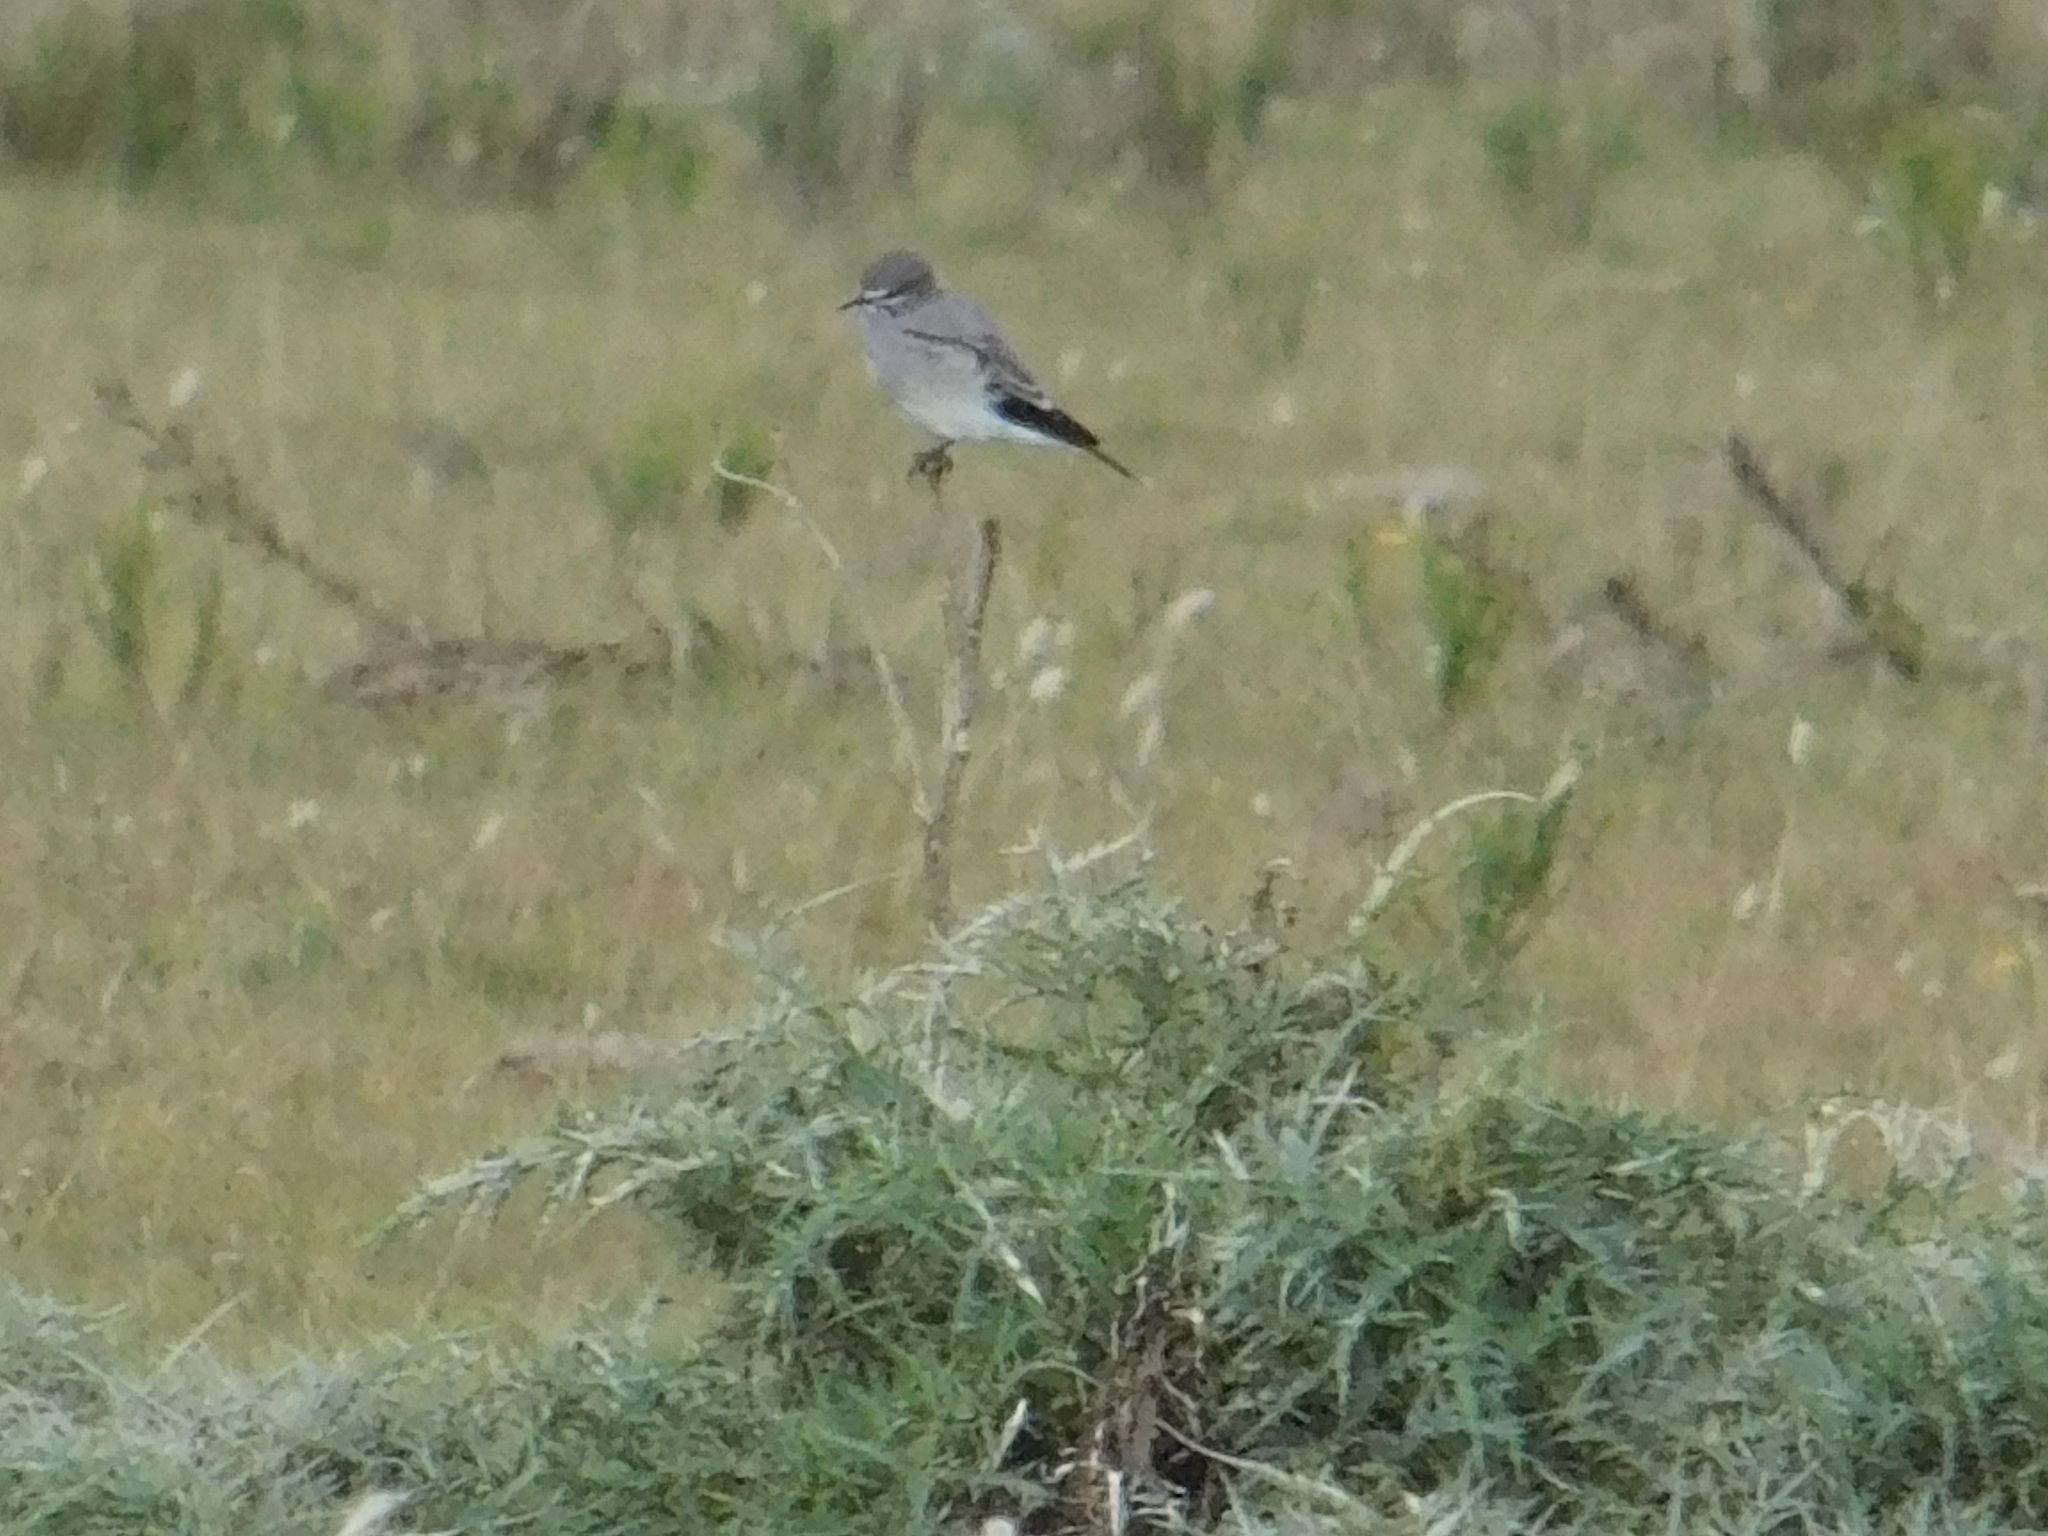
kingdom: Animalia
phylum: Chordata
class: Aves
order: Passeriformes
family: Tyrannidae
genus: Xolmis
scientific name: Xolmis cinereus
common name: Grey monjita
